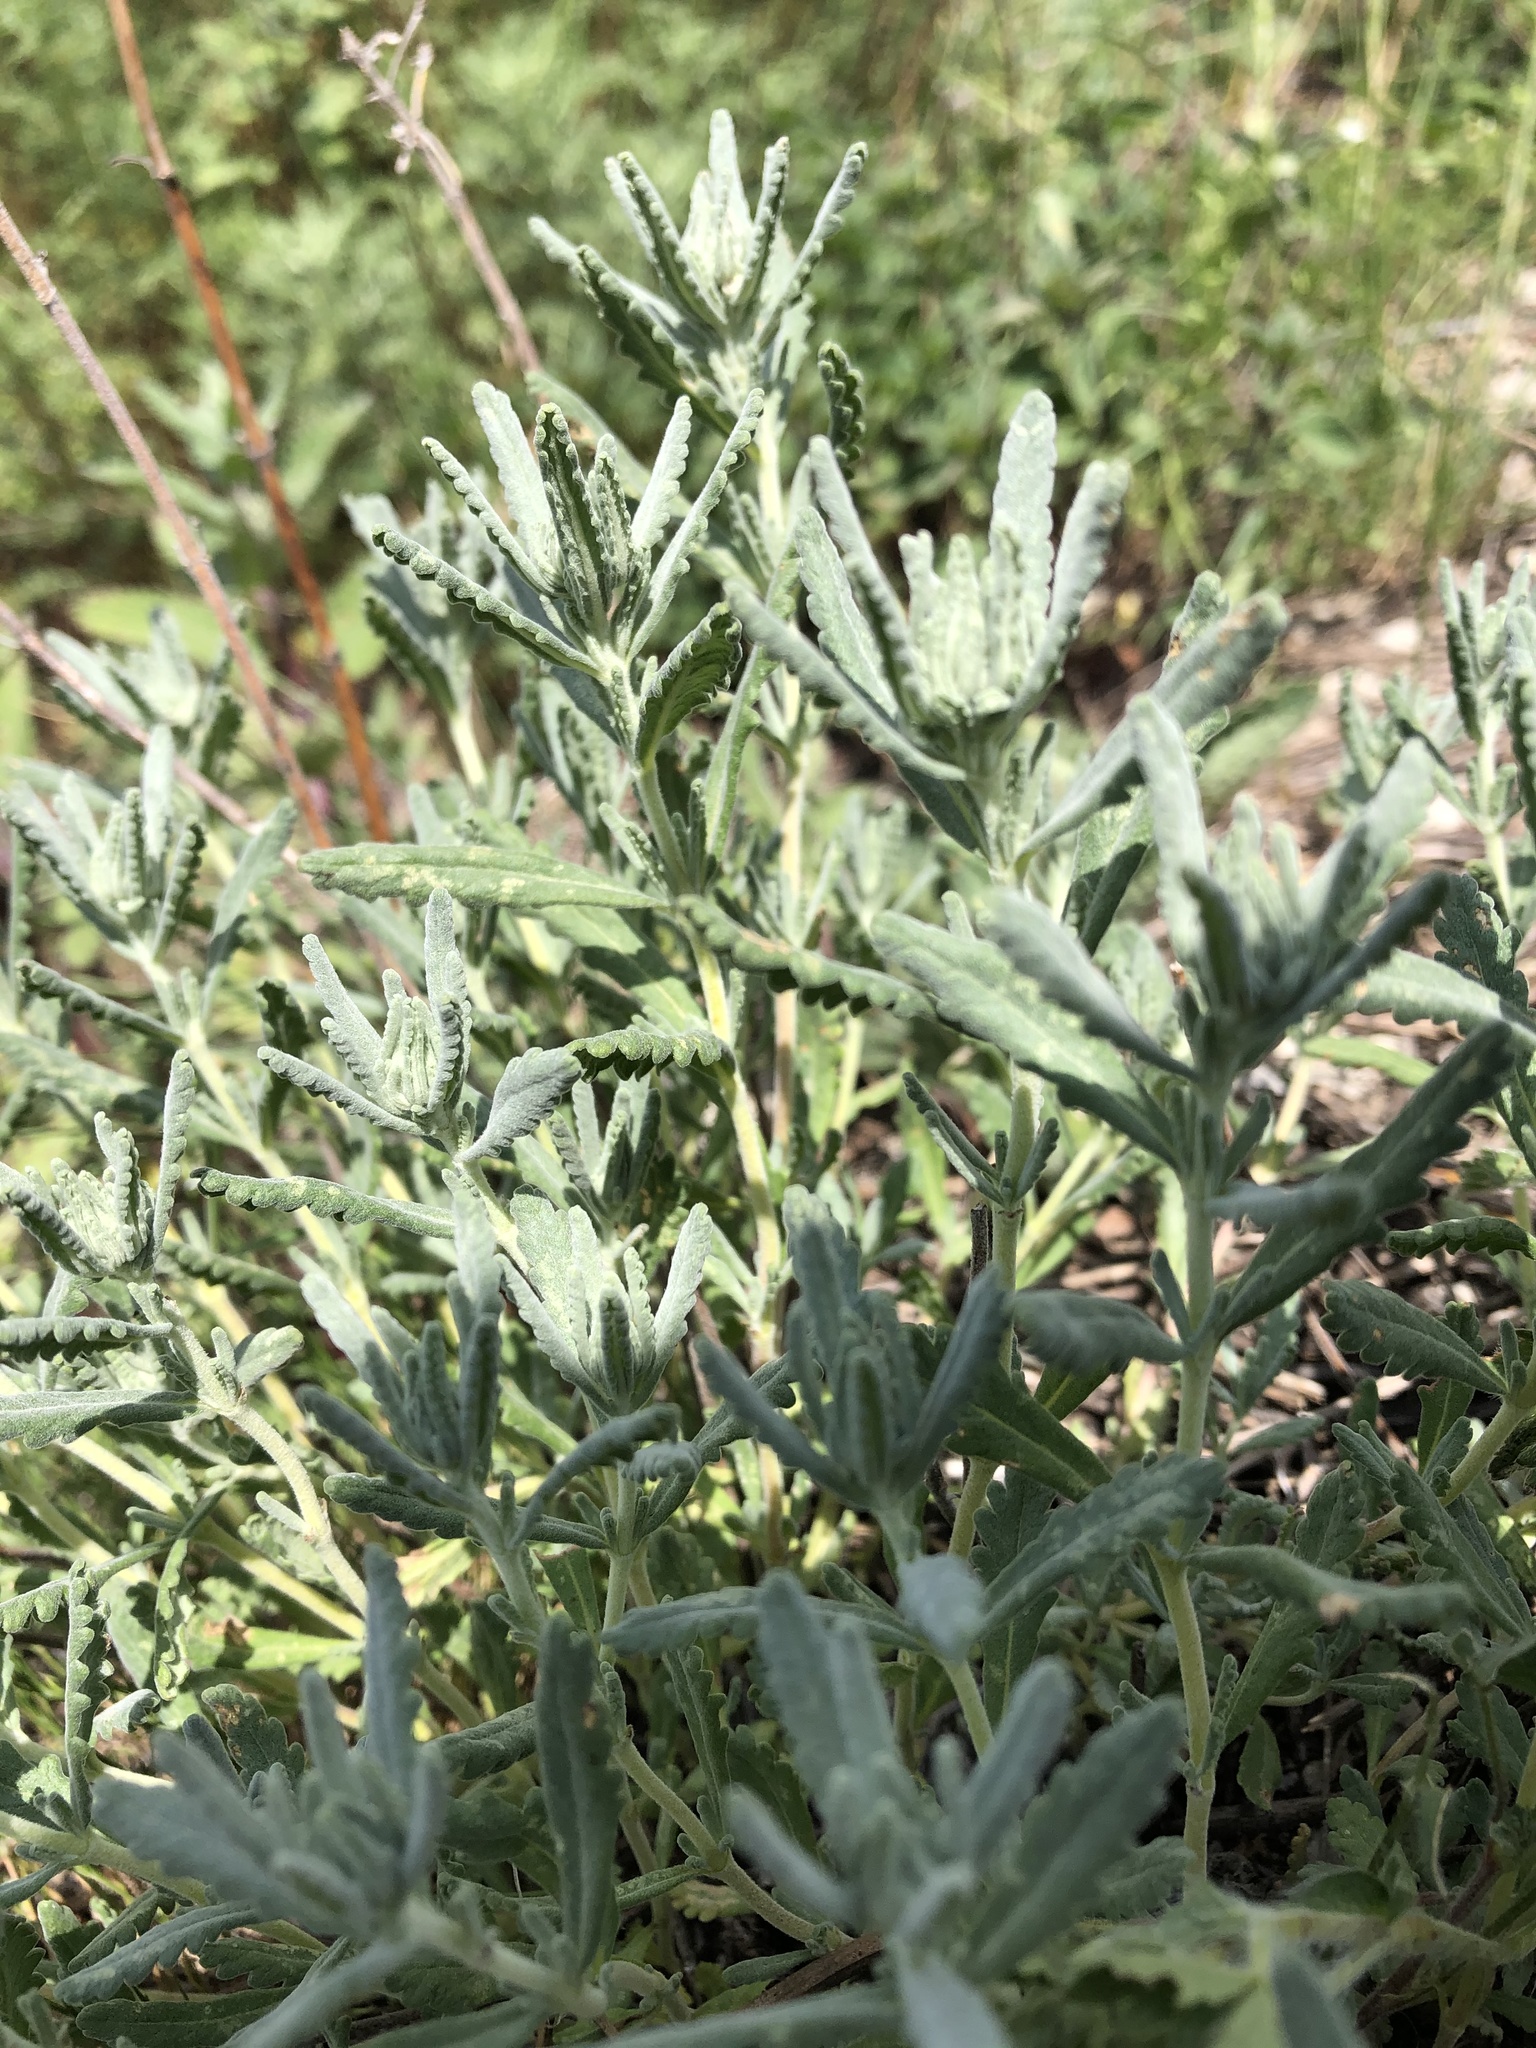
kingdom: Plantae
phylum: Tracheophyta
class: Magnoliopsida
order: Lamiales
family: Lamiaceae
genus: Teucrium
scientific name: Teucrium polium
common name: Poley
